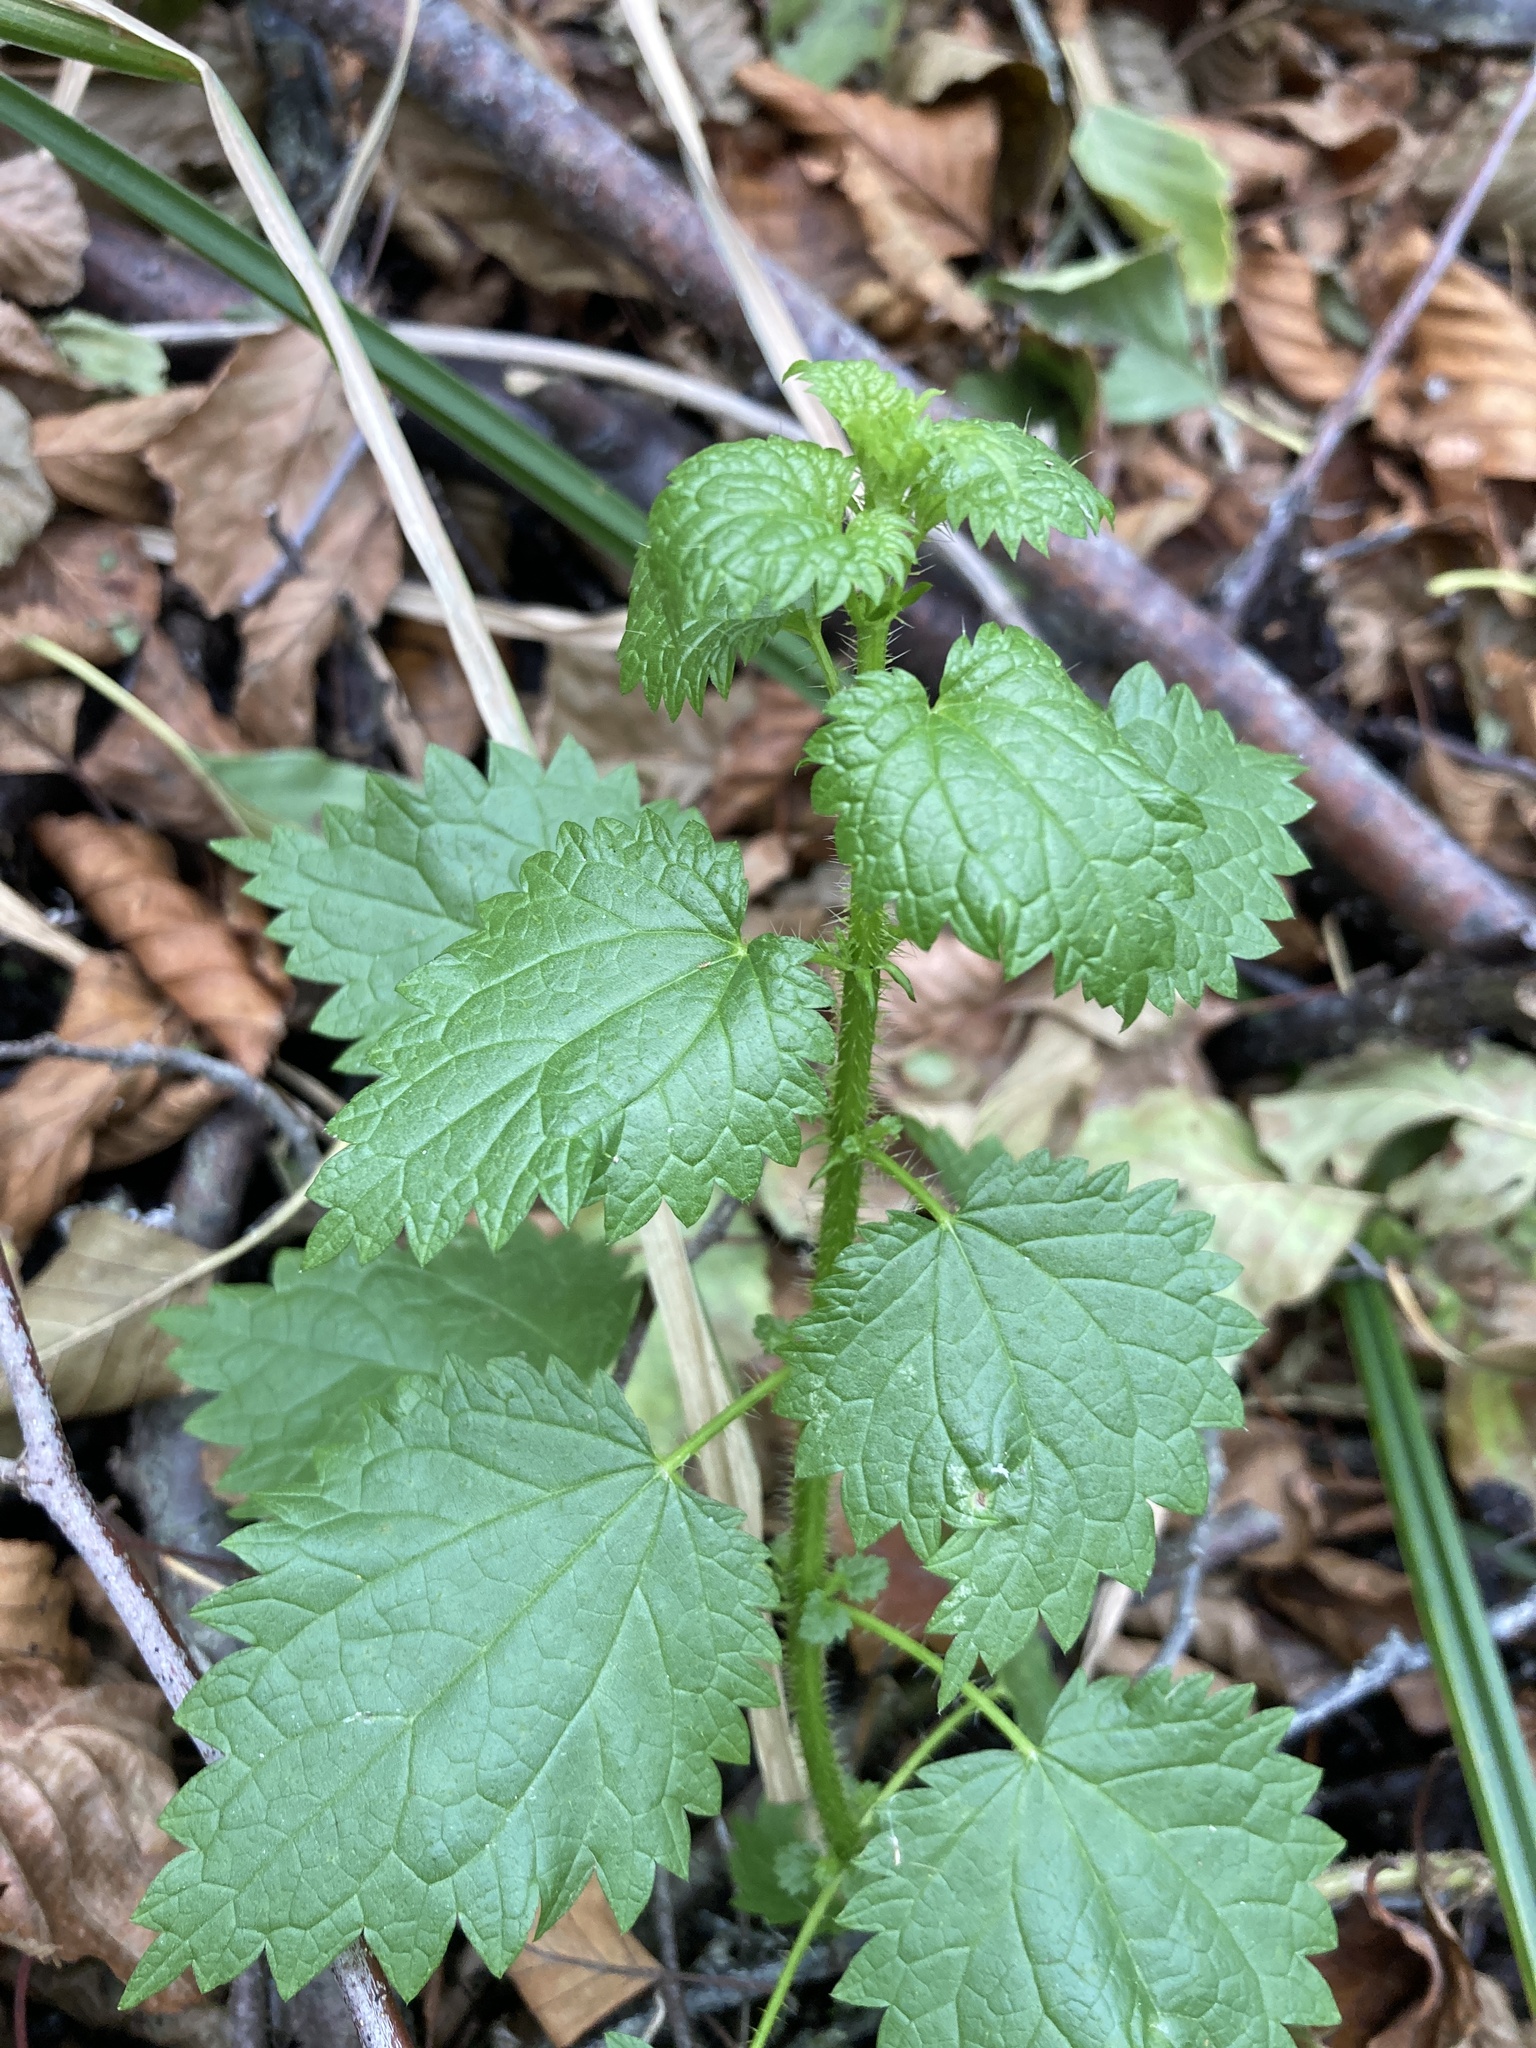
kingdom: Plantae
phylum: Tracheophyta
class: Magnoliopsida
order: Rosales
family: Urticaceae
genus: Urtica
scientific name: Urtica dioica
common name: Common nettle
